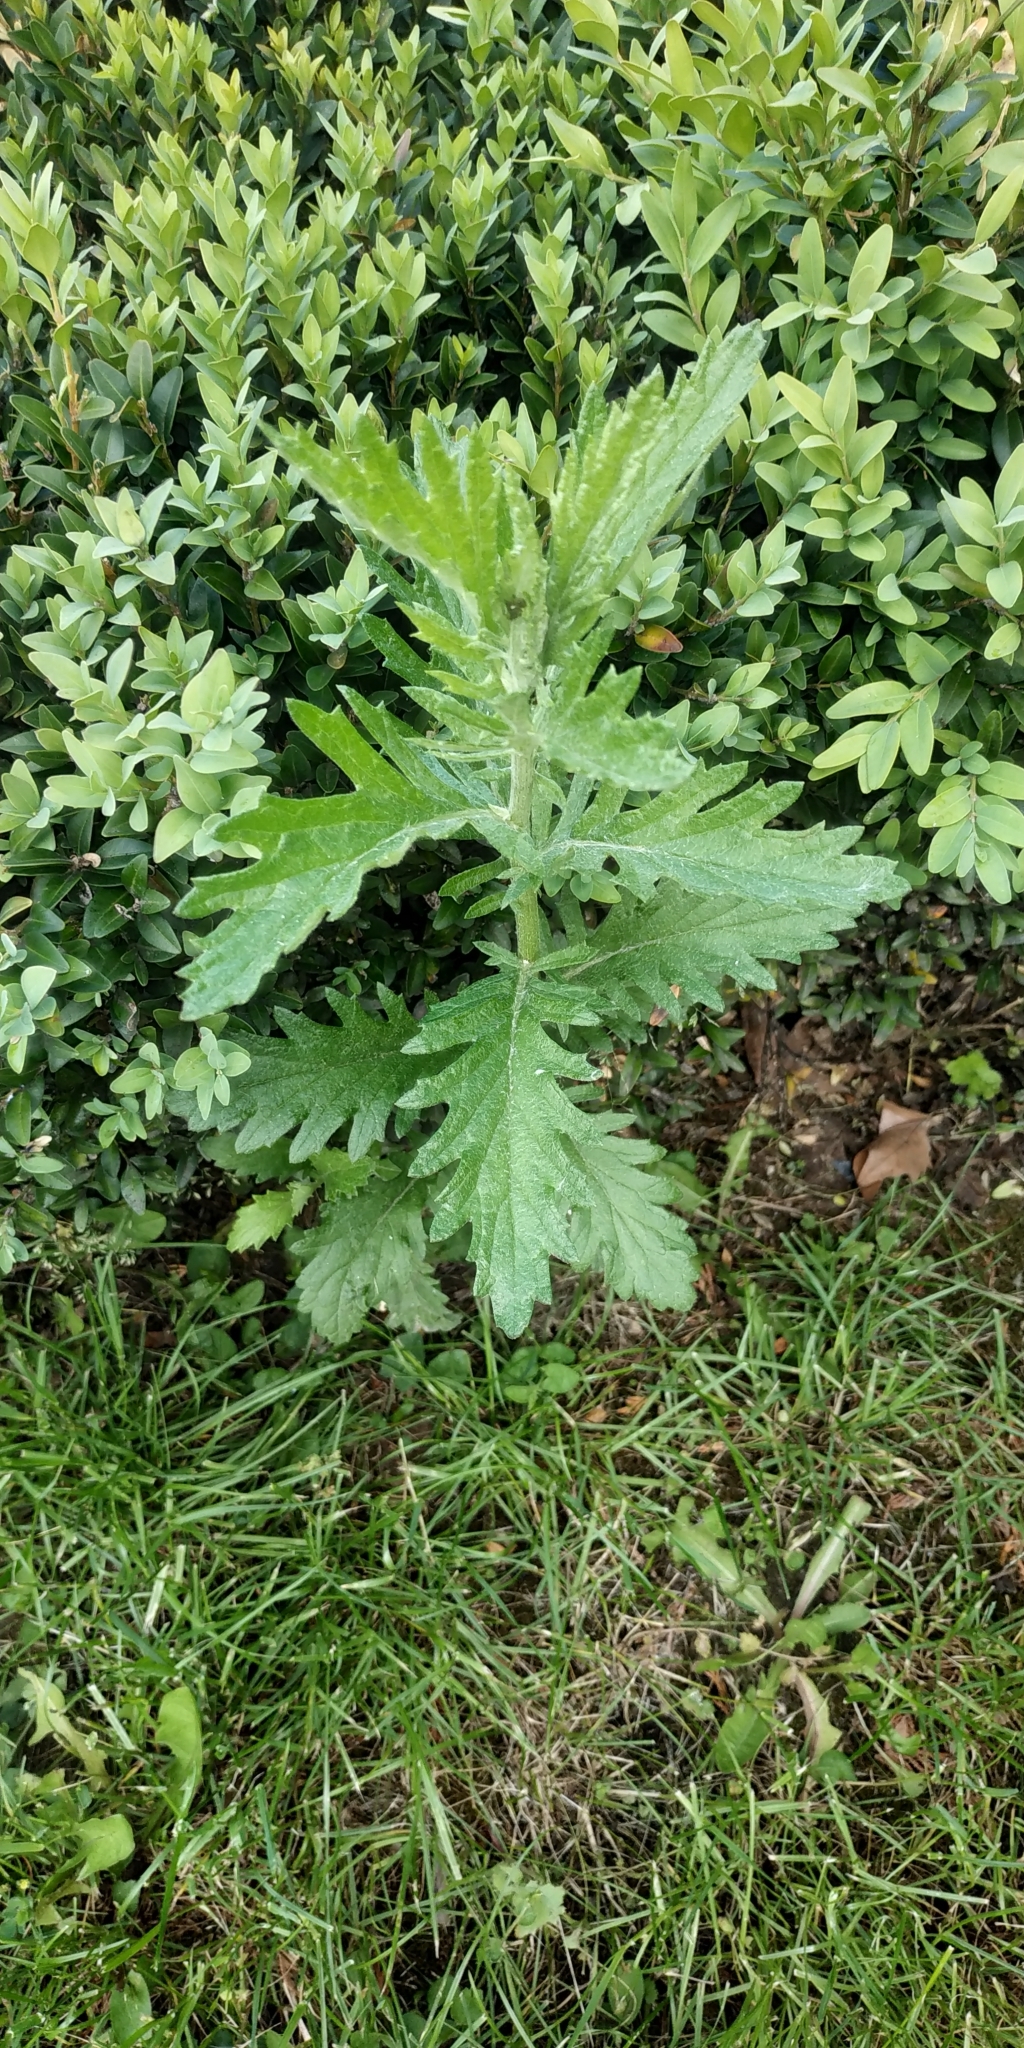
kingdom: Plantae
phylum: Tracheophyta
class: Magnoliopsida
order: Asterales
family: Asteraceae
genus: Jacobaea
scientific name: Jacobaea erucifolia
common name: Hoary ragwort
